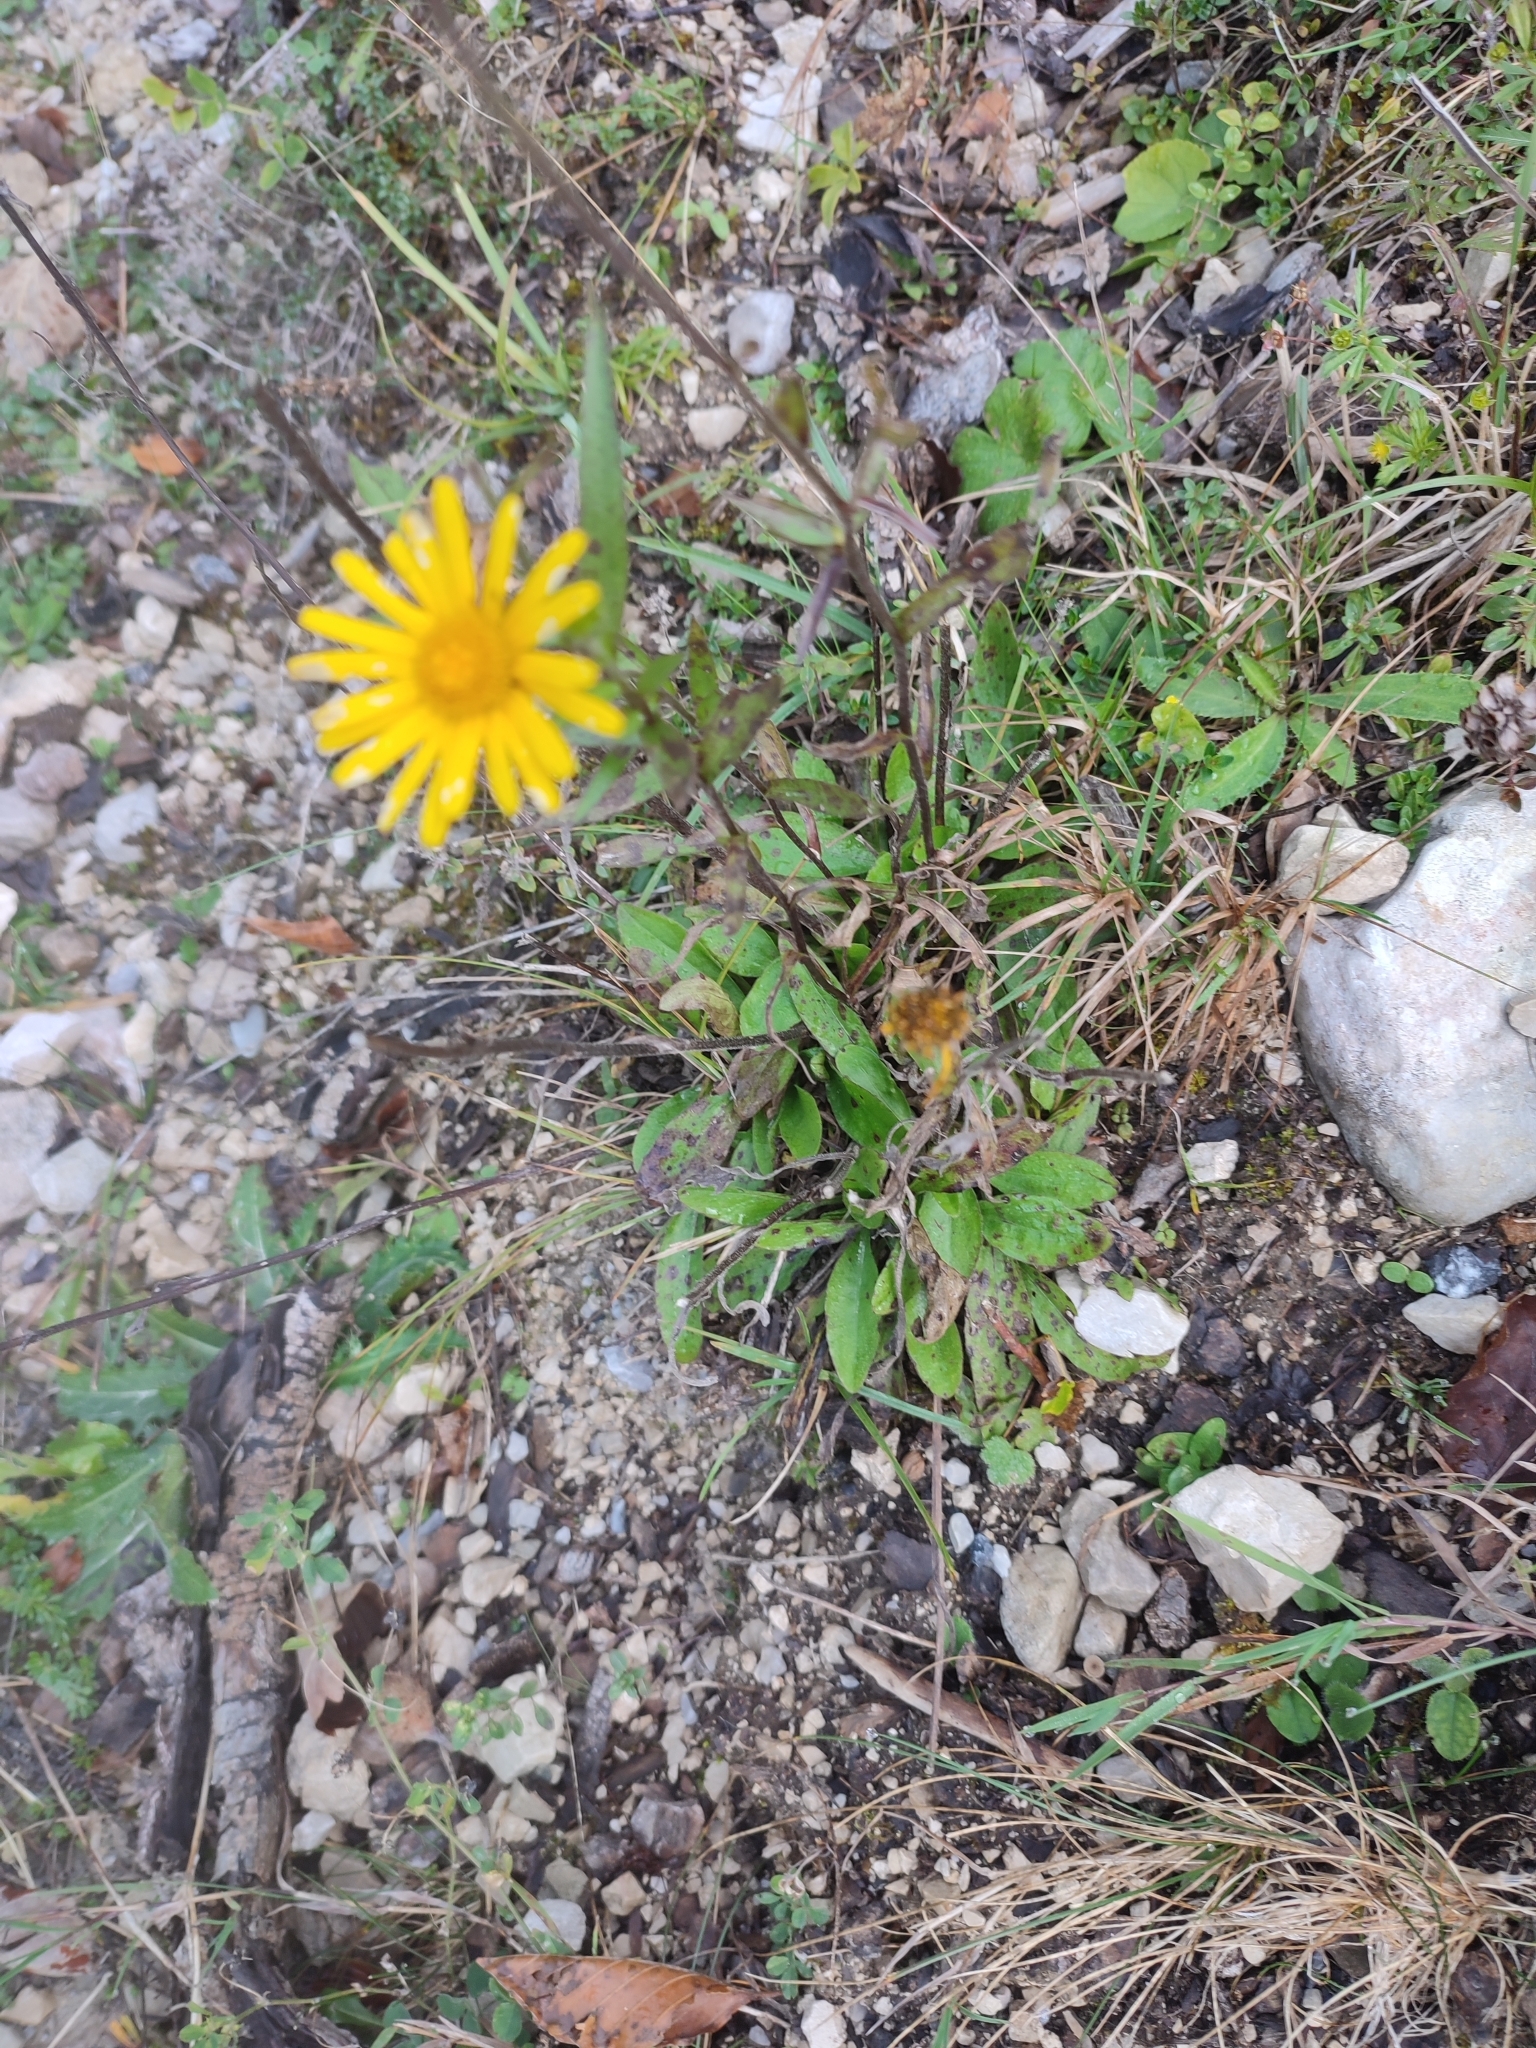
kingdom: Plantae
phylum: Tracheophyta
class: Magnoliopsida
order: Asterales
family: Asteraceae
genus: Buphthalmum
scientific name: Buphthalmum salicifolium
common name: Willow-leaved yellow-oxeye
